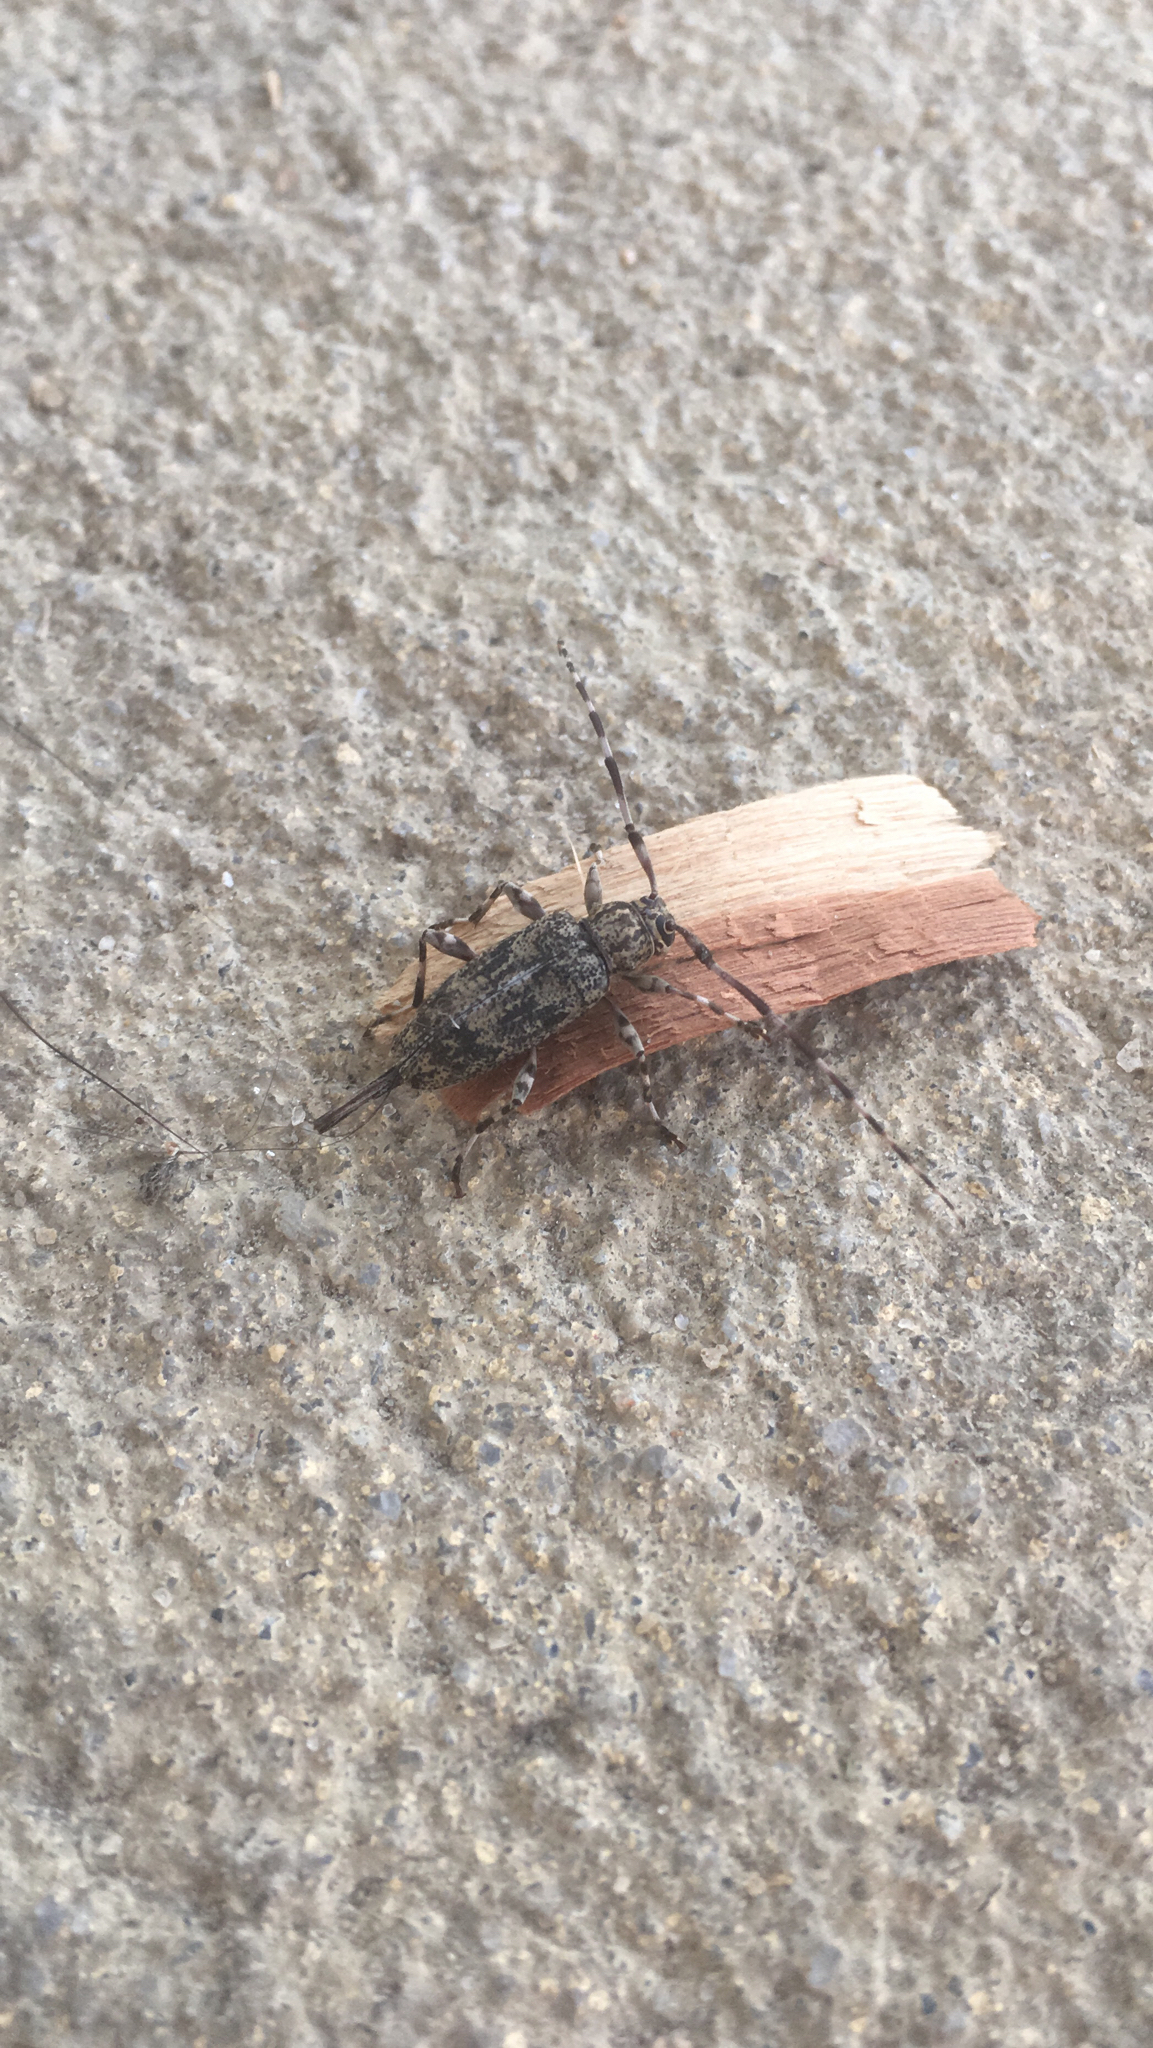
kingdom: Animalia
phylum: Arthropoda
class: Insecta
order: Coleoptera
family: Cerambycidae
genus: Graphisurus
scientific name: Graphisurus fasciatus
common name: Banded graphisurus
